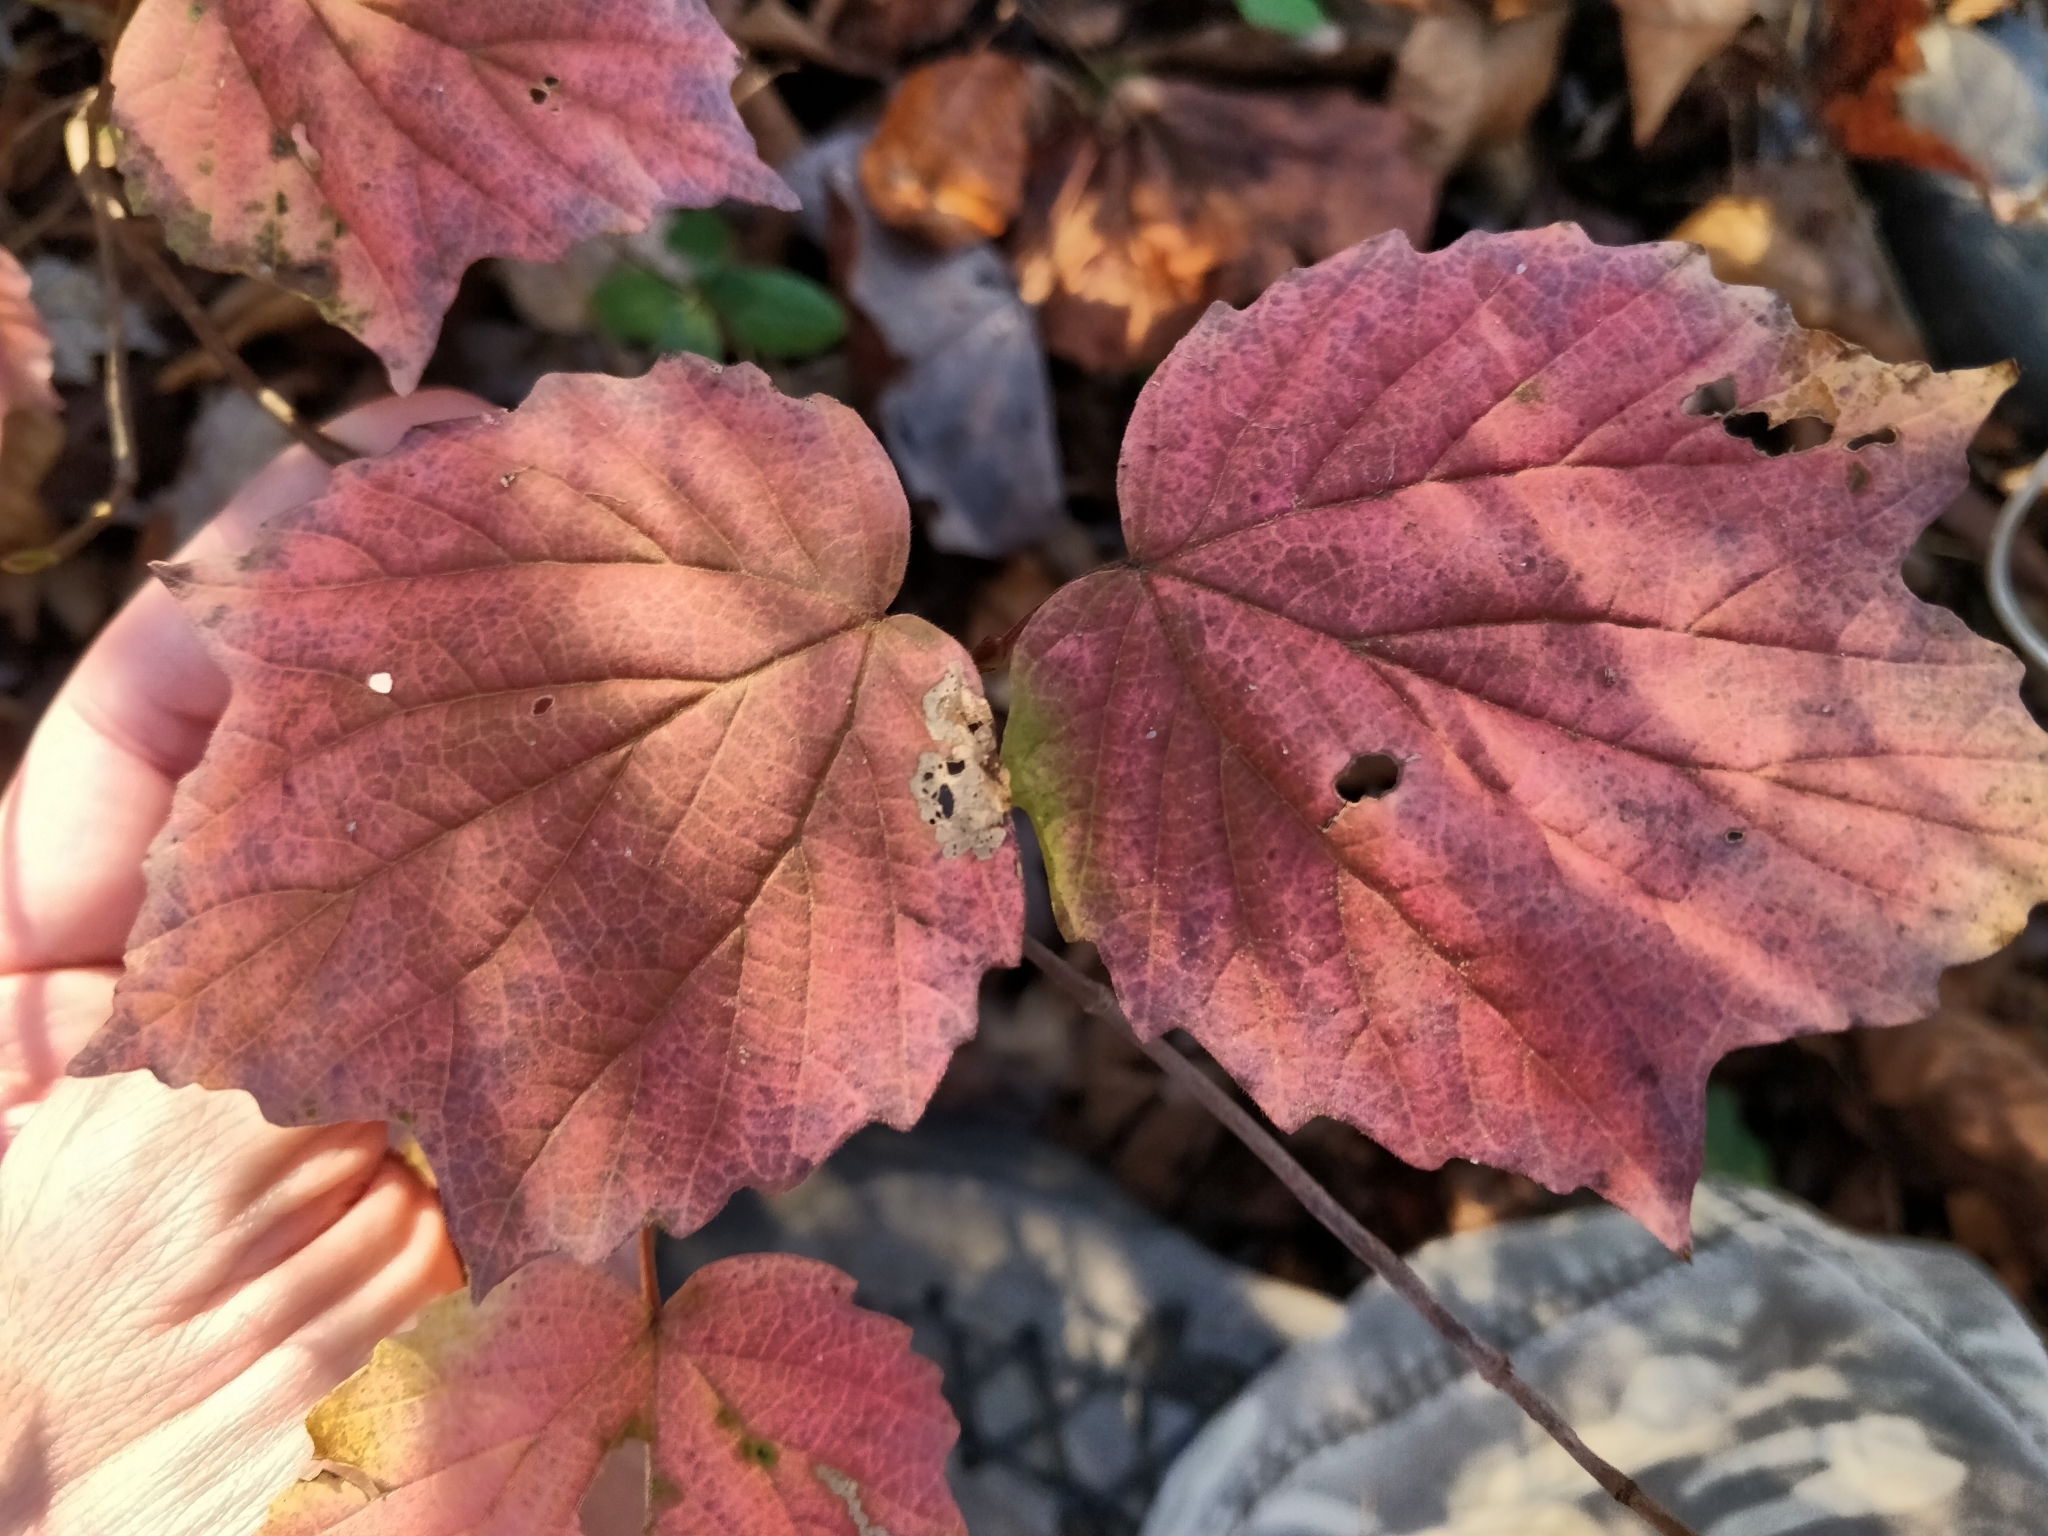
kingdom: Plantae
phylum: Tracheophyta
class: Magnoliopsida
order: Dipsacales
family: Viburnaceae
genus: Viburnum
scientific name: Viburnum acerifolium
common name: Dockmackie
